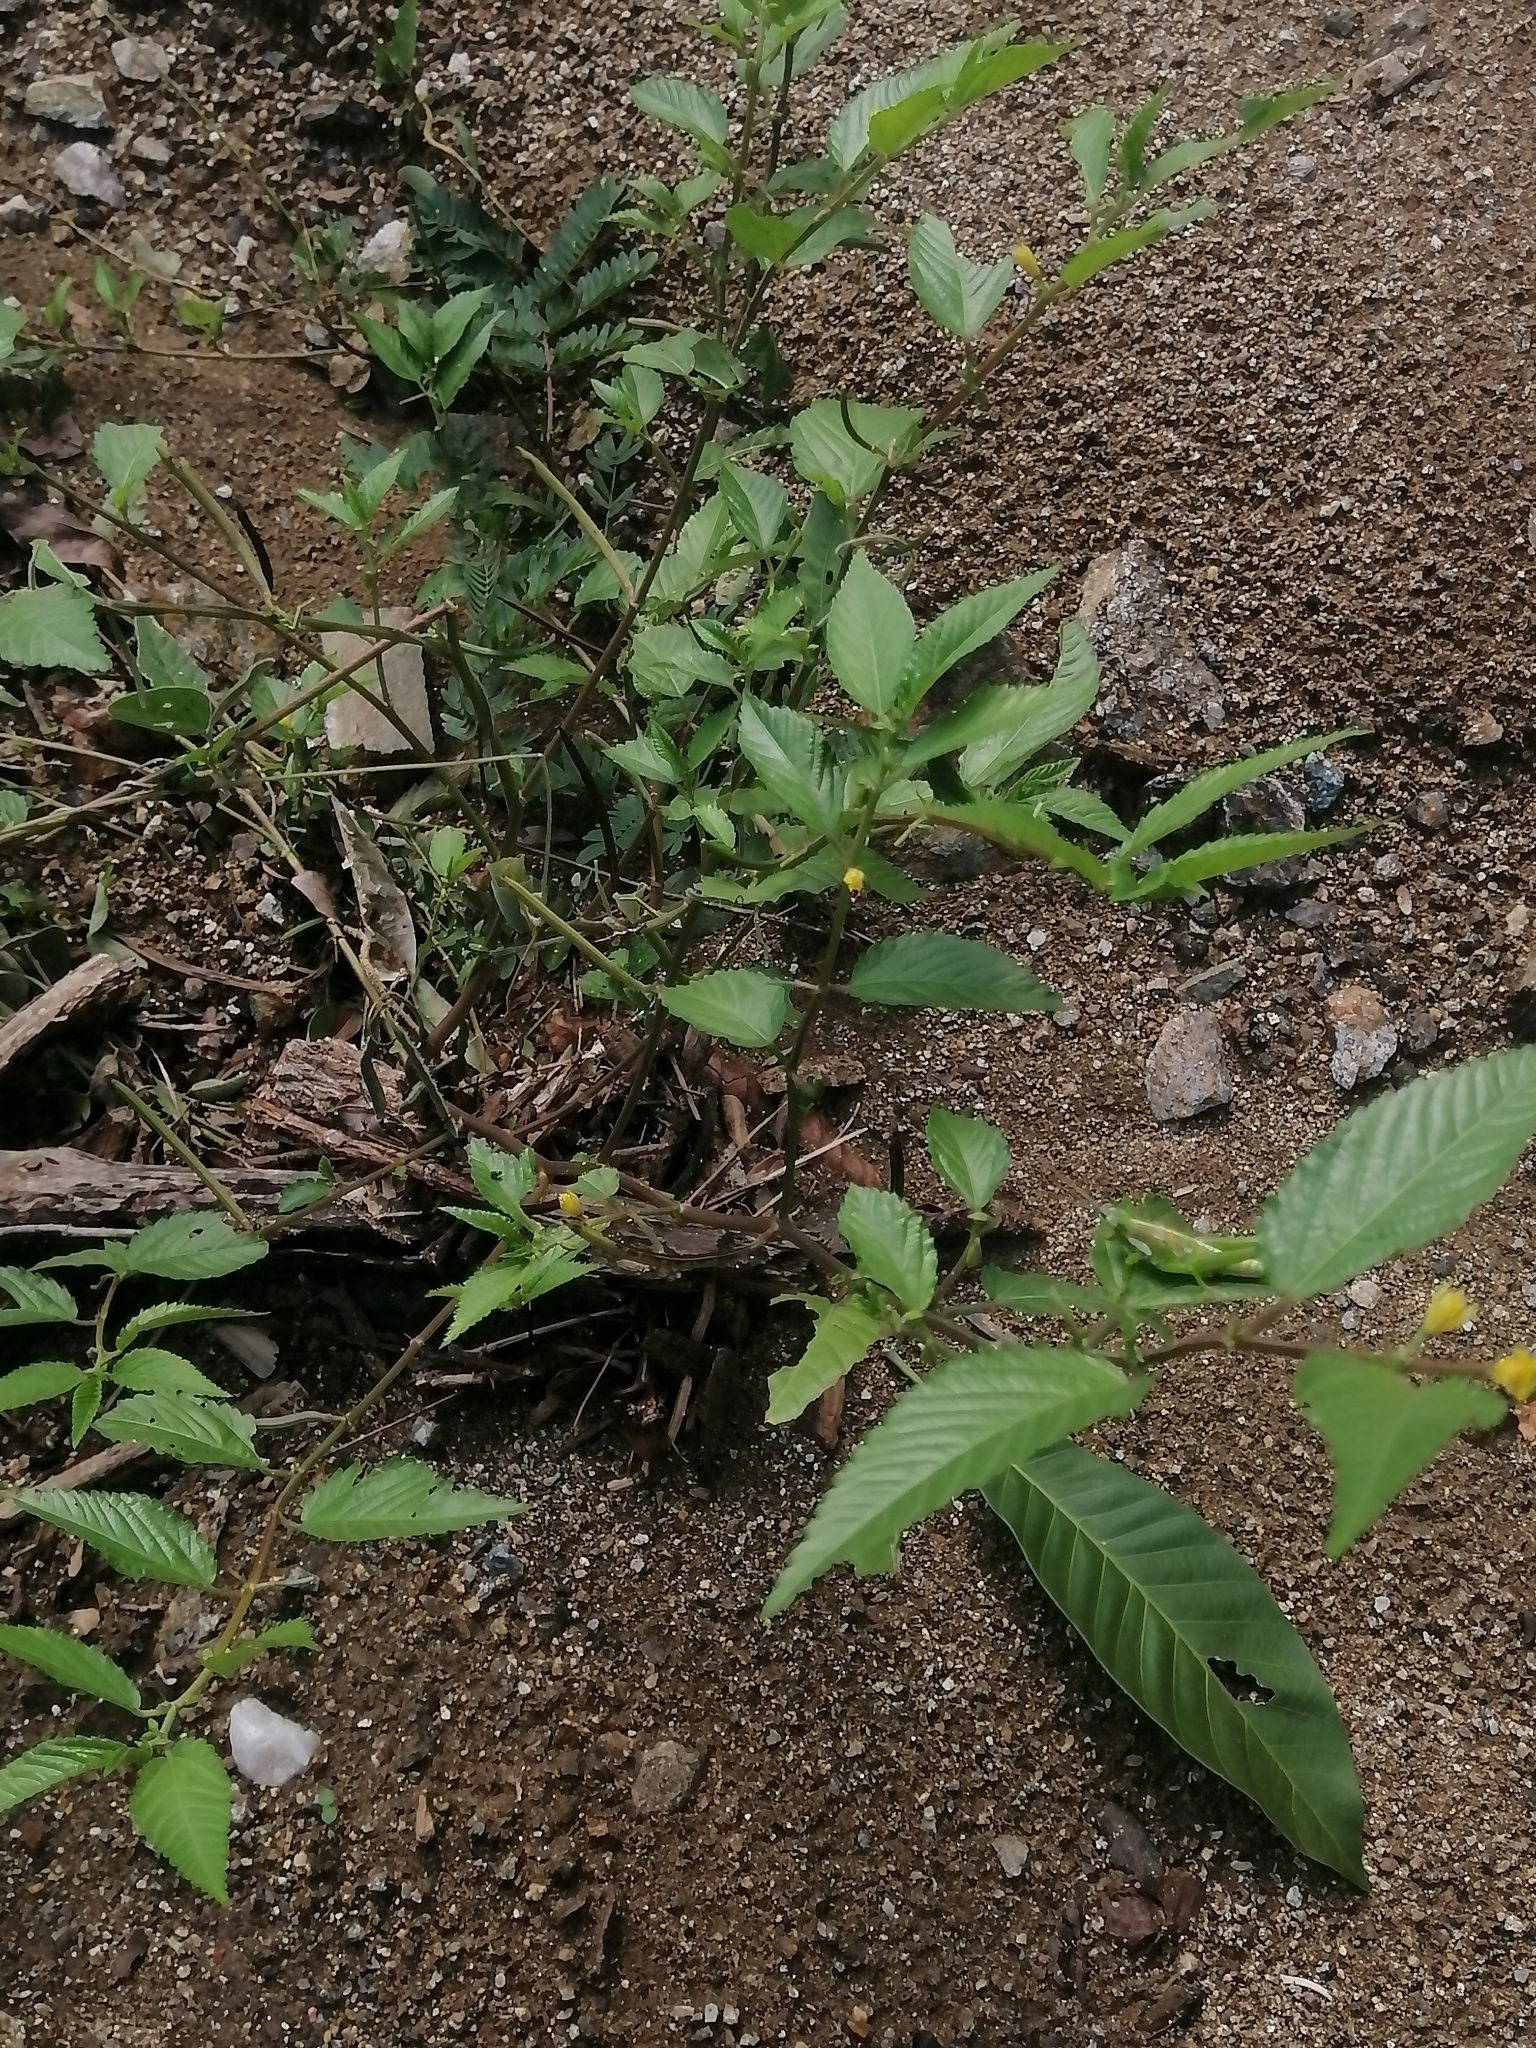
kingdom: Plantae
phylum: Tracheophyta
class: Magnoliopsida
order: Malvales
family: Malvaceae
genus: Corchorus
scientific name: Corchorus aestuans
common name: Jute
